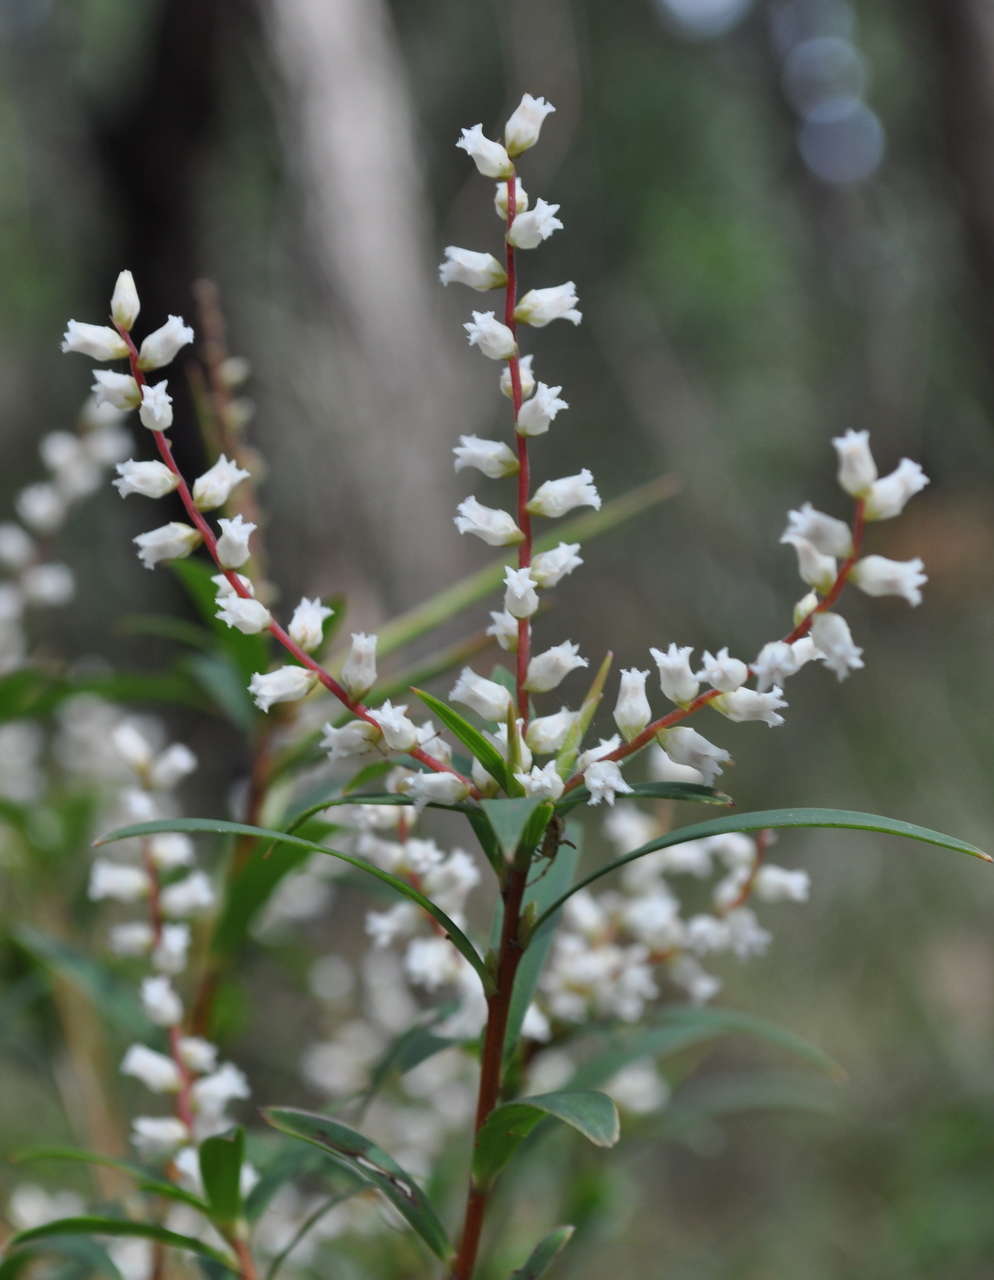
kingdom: Plantae
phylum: Tracheophyta
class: Magnoliopsida
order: Ericales
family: Ericaceae
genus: Leucopogon
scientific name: Leucopogon lanceolatus
